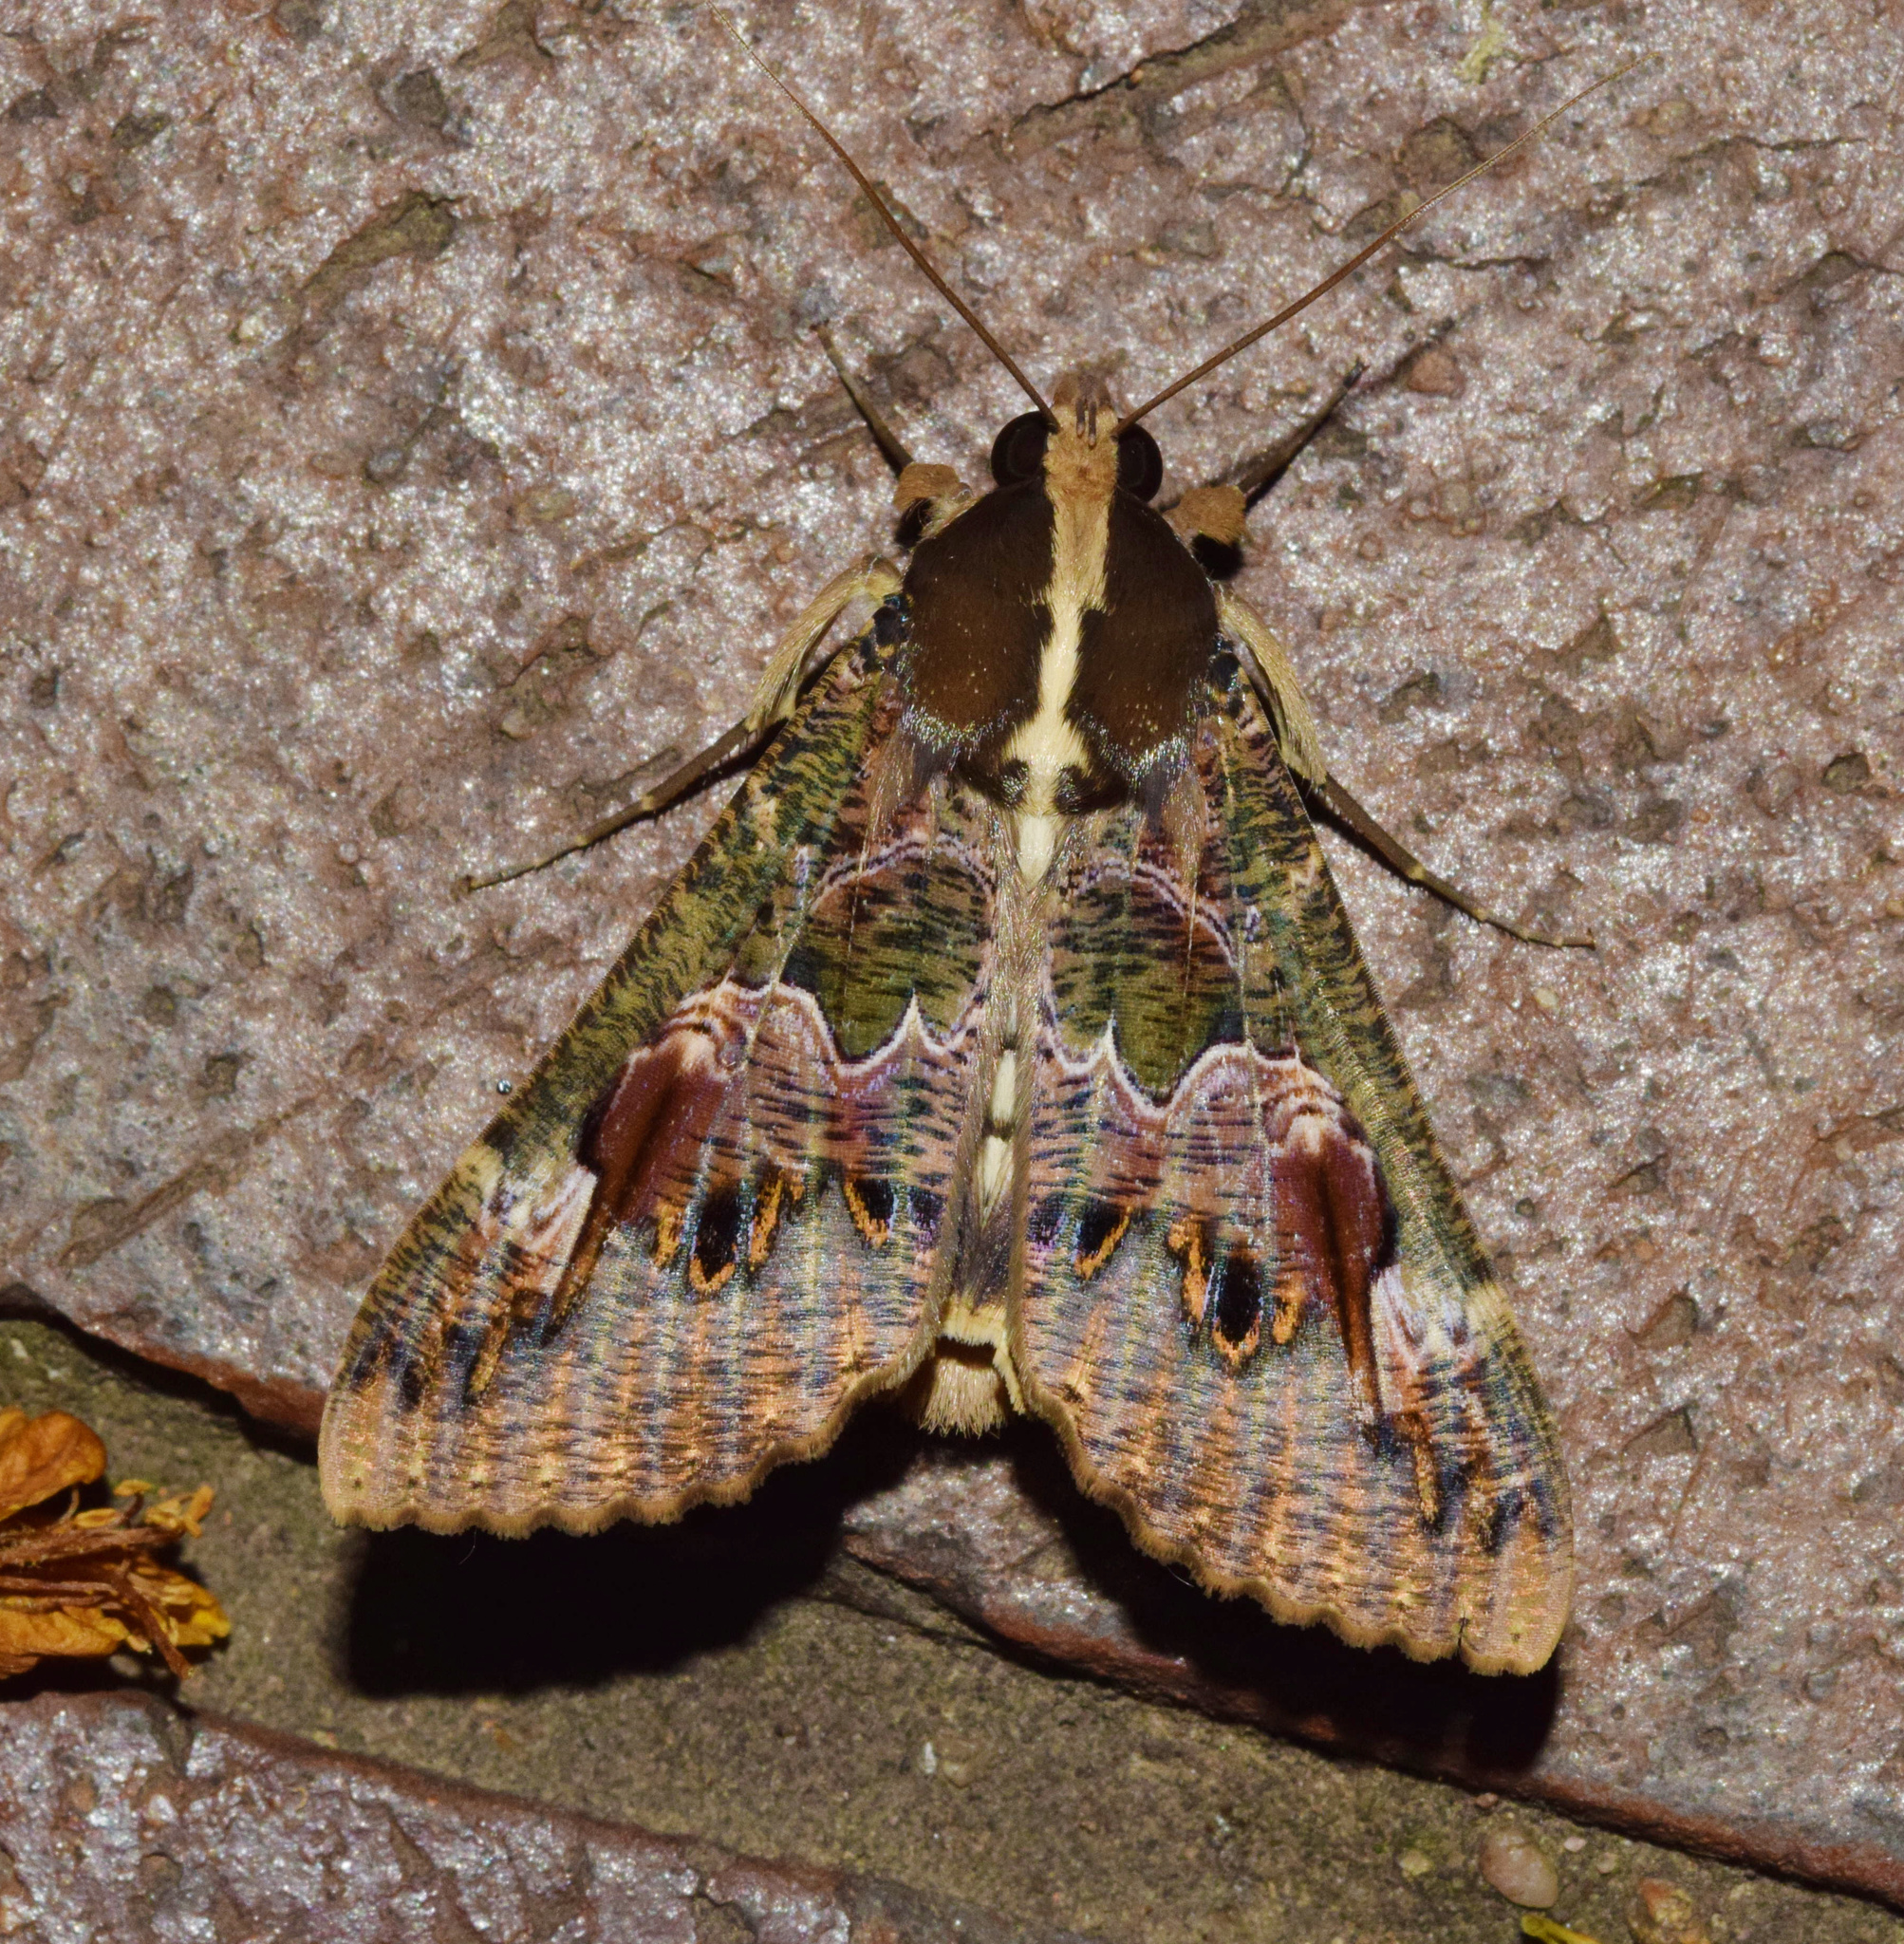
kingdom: Animalia
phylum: Arthropoda
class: Insecta
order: Lepidoptera
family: Erebidae
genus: Sphingomorpha
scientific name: Sphingomorpha chlorea
